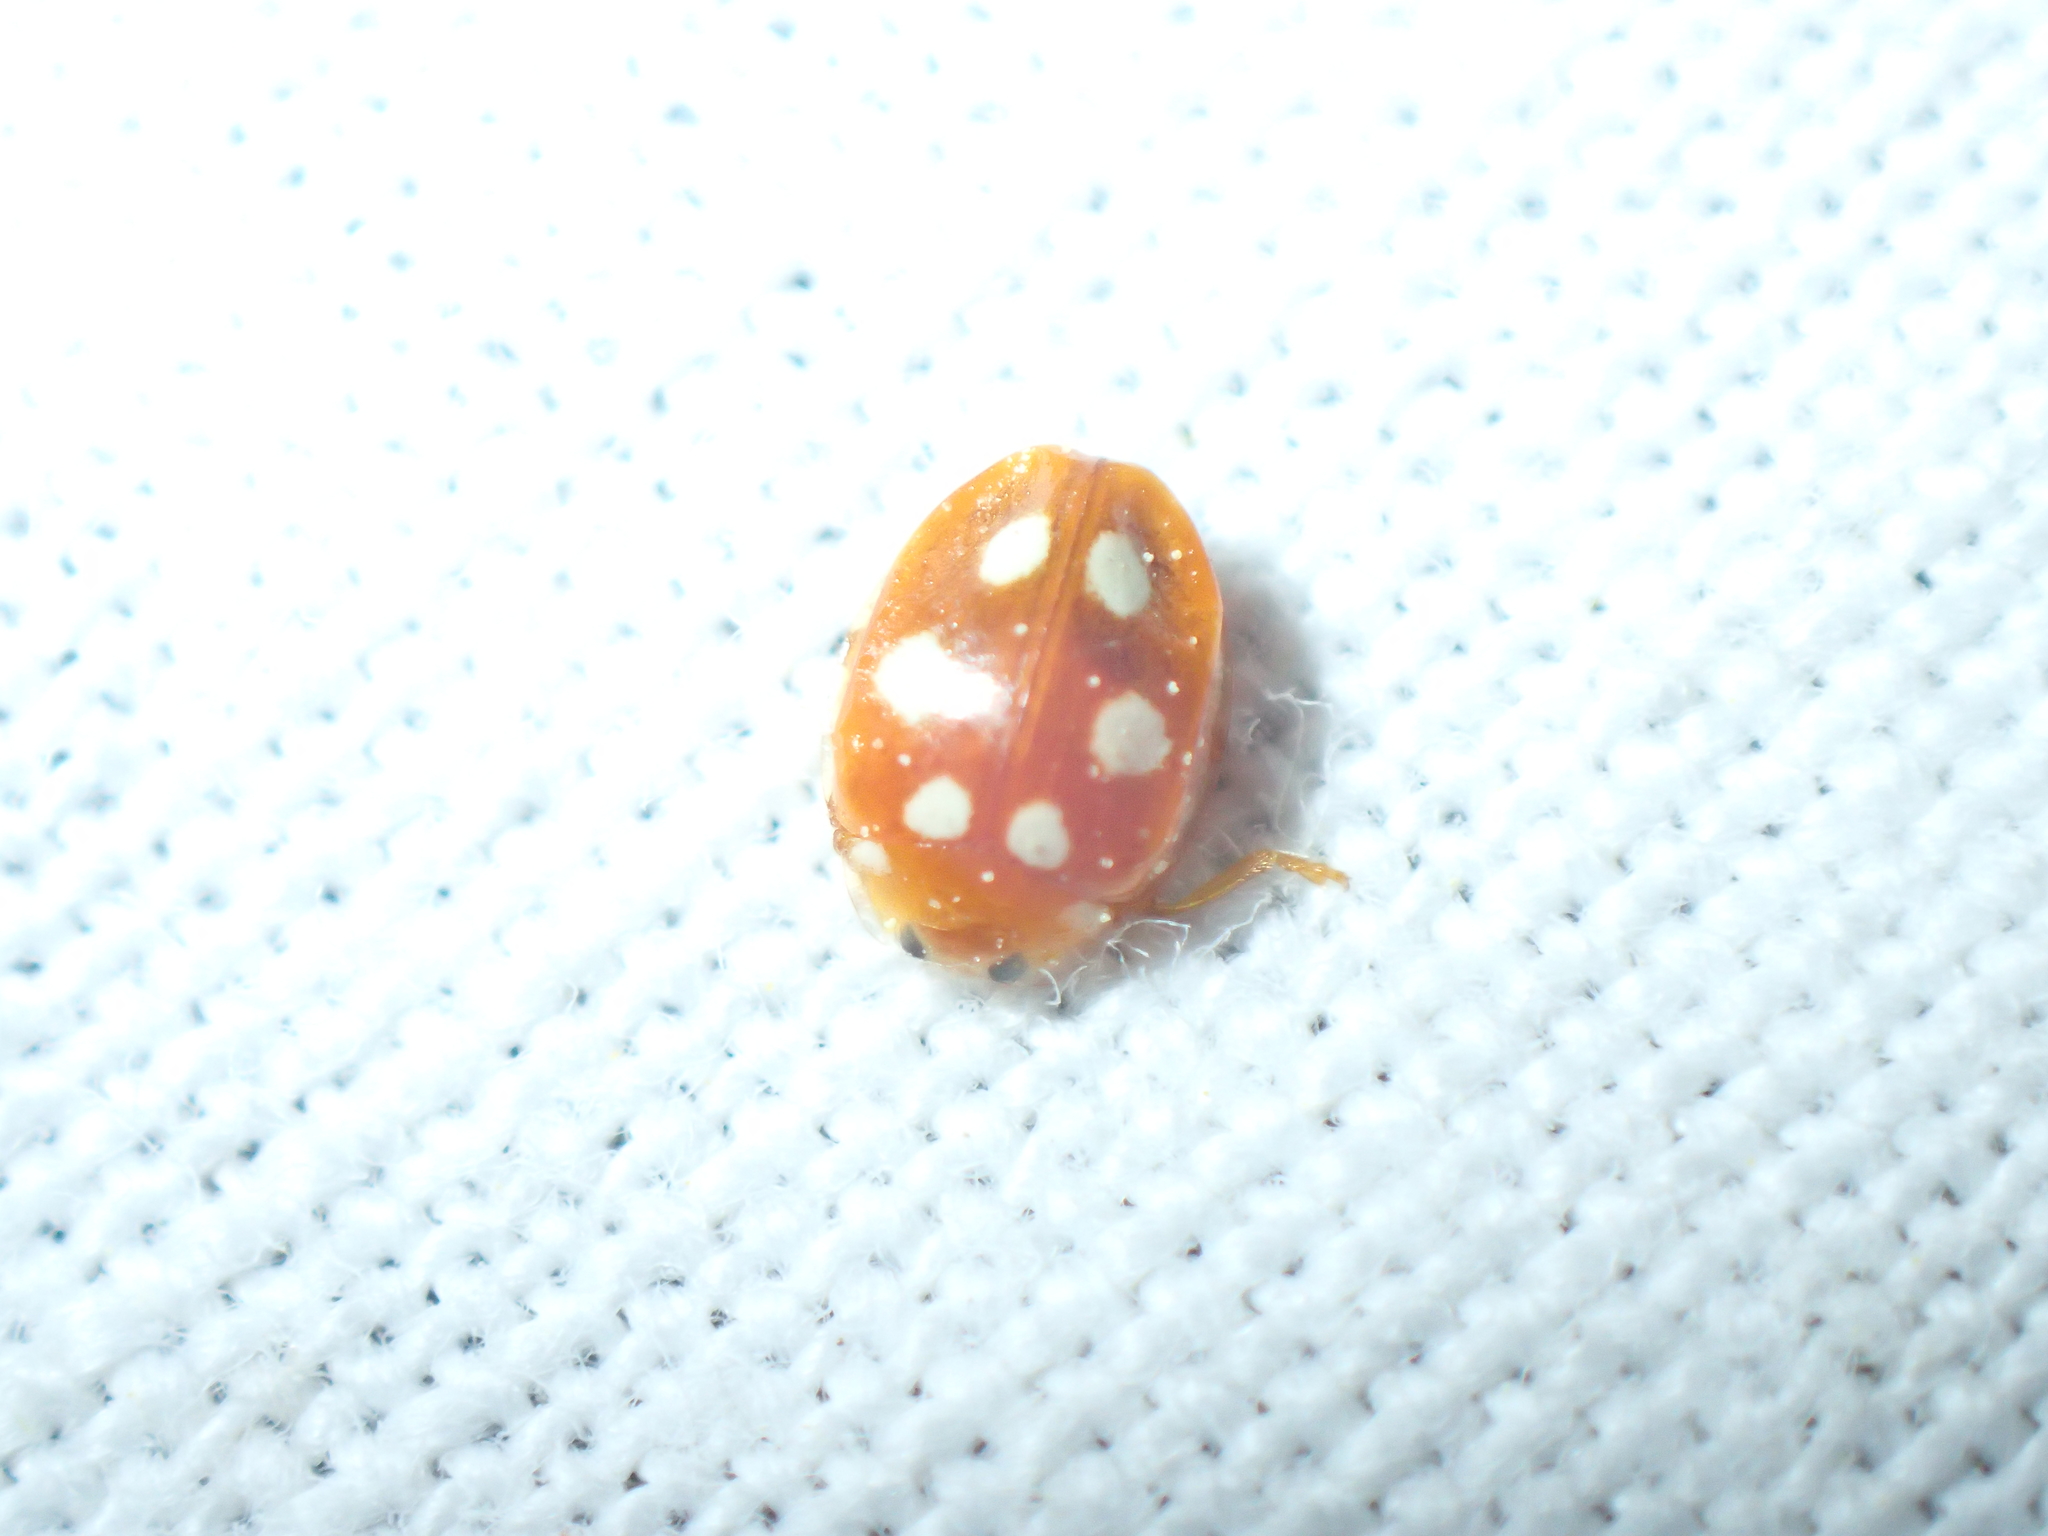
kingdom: Animalia
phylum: Arthropoda
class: Insecta
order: Coleoptera
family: Coccinellidae
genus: Vibidia
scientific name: Vibidia duodecimguttata
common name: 12-spot ladybird
